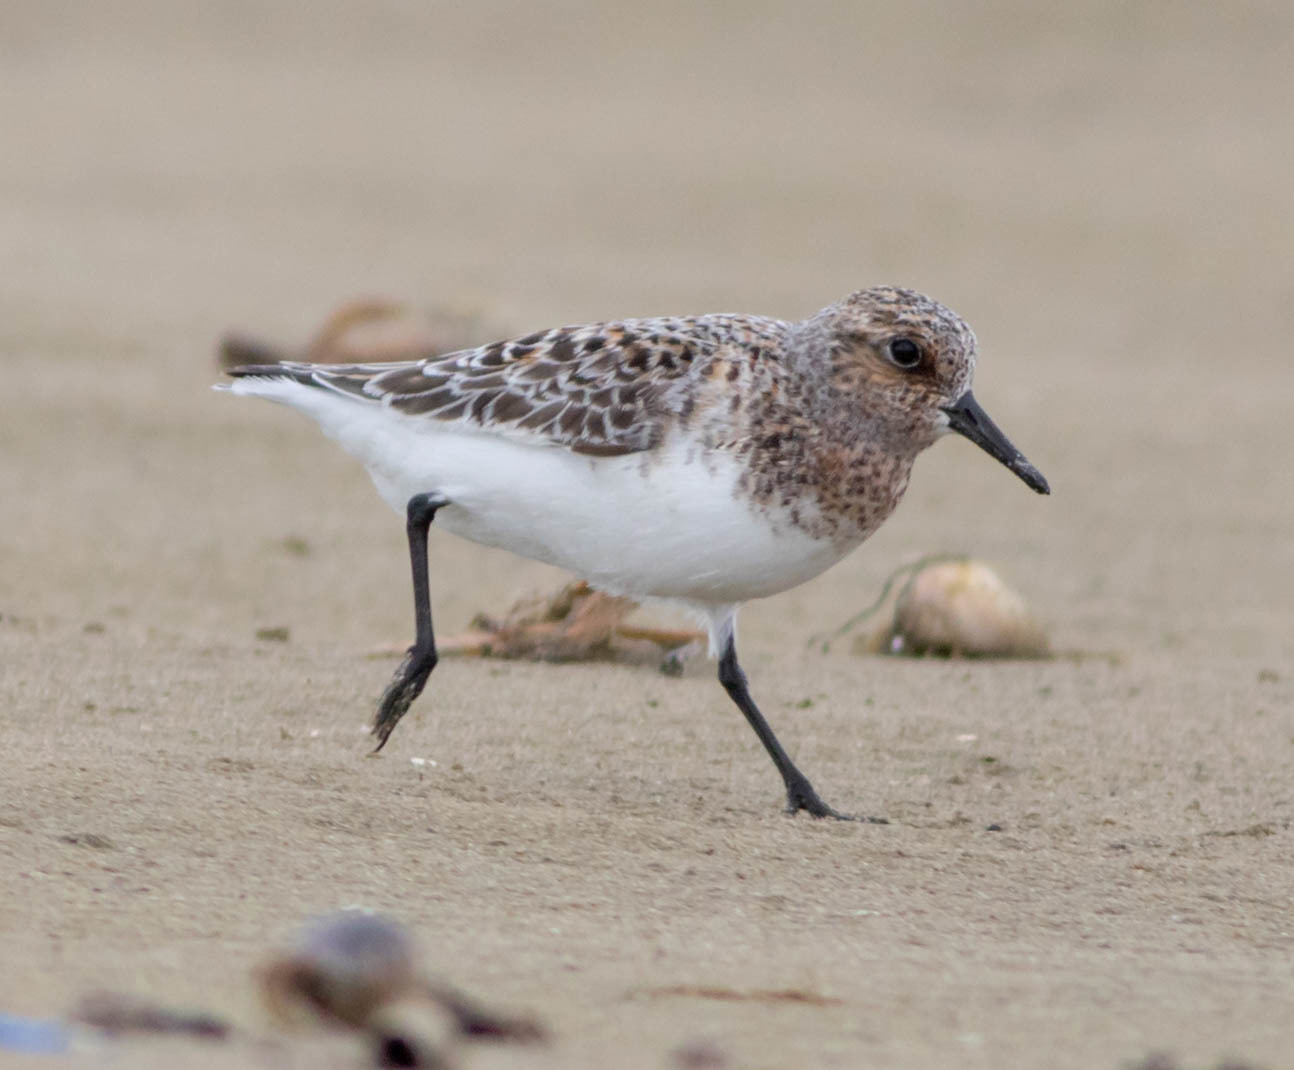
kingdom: Animalia
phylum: Chordata
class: Aves
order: Charadriiformes
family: Scolopacidae
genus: Calidris
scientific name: Calidris alba
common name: Sanderling
